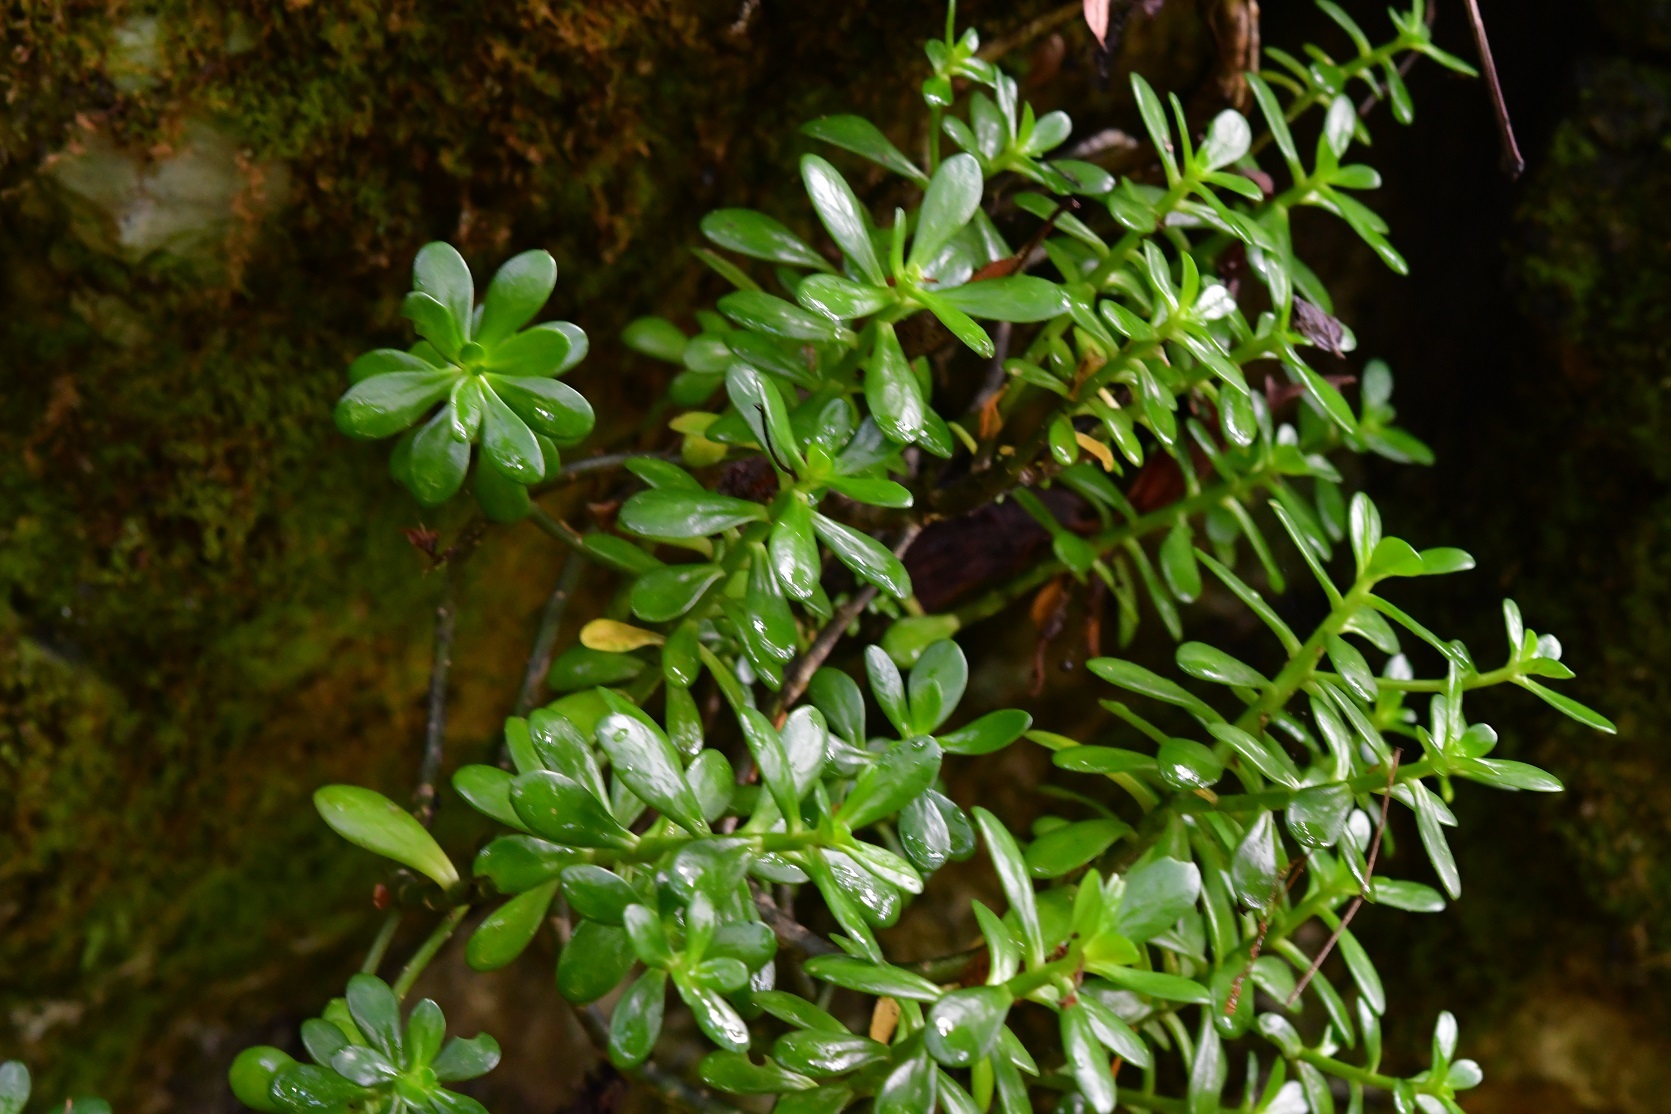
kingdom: Plantae
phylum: Tracheophyta
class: Magnoliopsida
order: Saxifragales
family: Crassulaceae
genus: Sedum
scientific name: Sedum botteri
